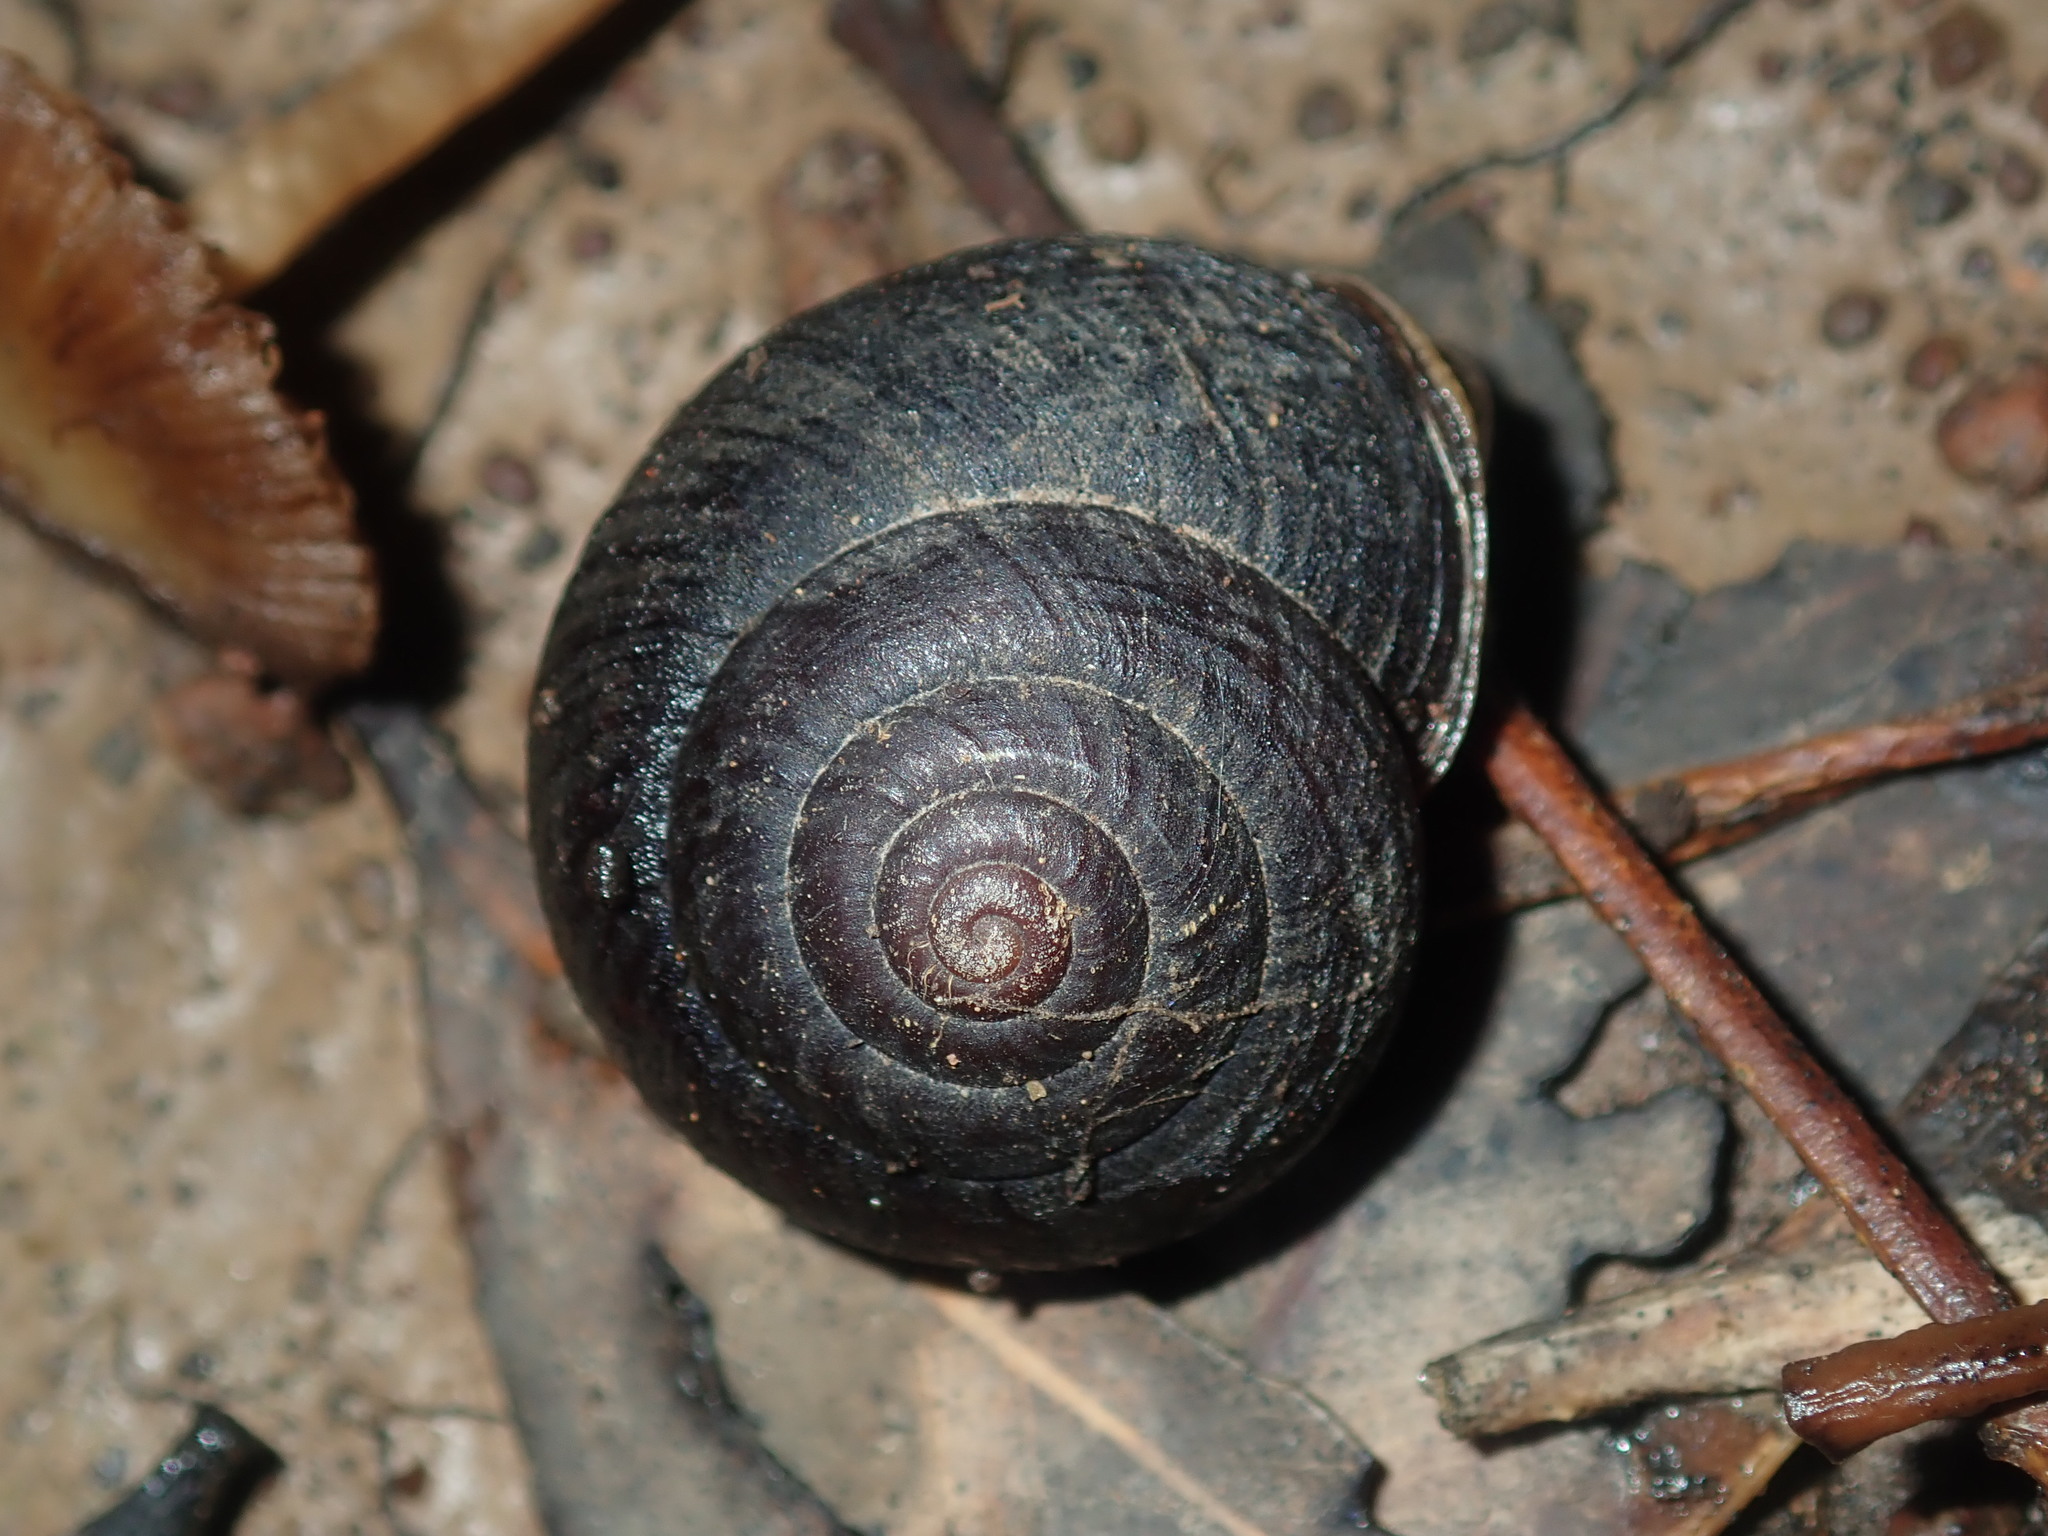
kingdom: Animalia
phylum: Mollusca
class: Gastropoda
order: Stylommatophora
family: Camaenidae
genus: Sauroconcha
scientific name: Sauroconcha sheai
